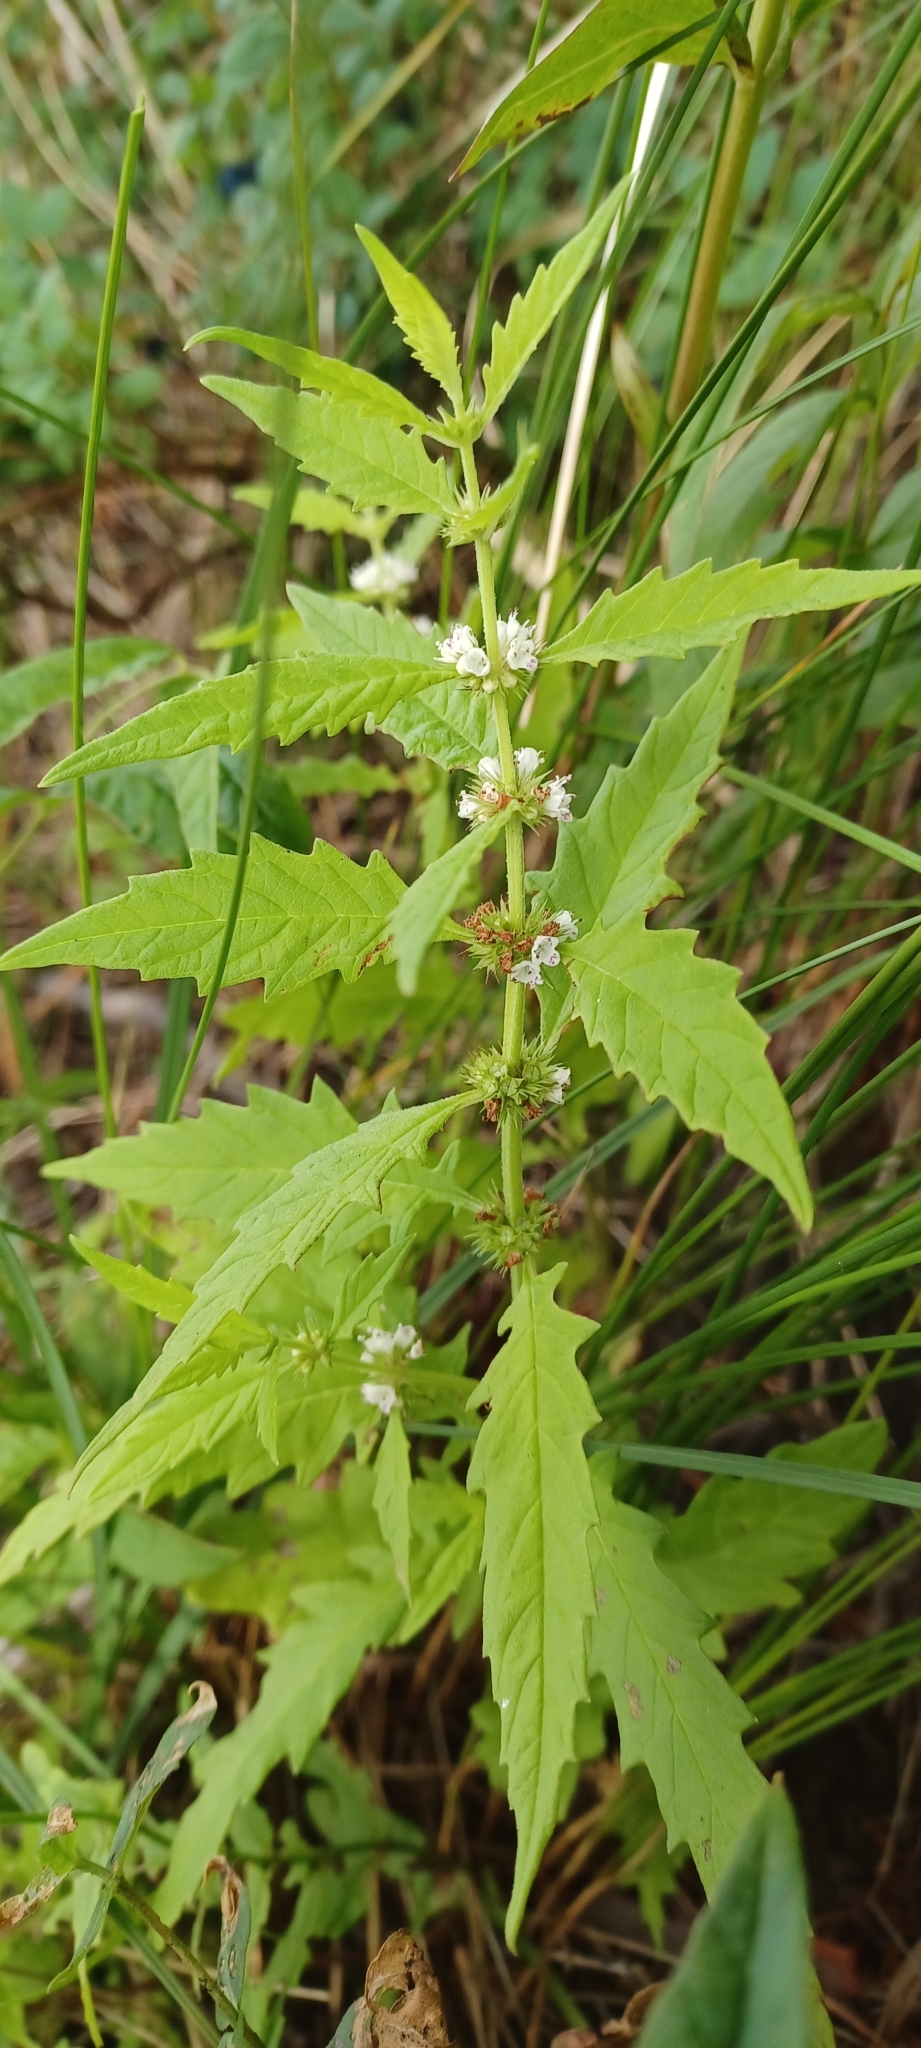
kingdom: Plantae
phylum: Tracheophyta
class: Magnoliopsida
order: Lamiales
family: Lamiaceae
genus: Lycopus
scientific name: Lycopus europaeus
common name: European bugleweed
